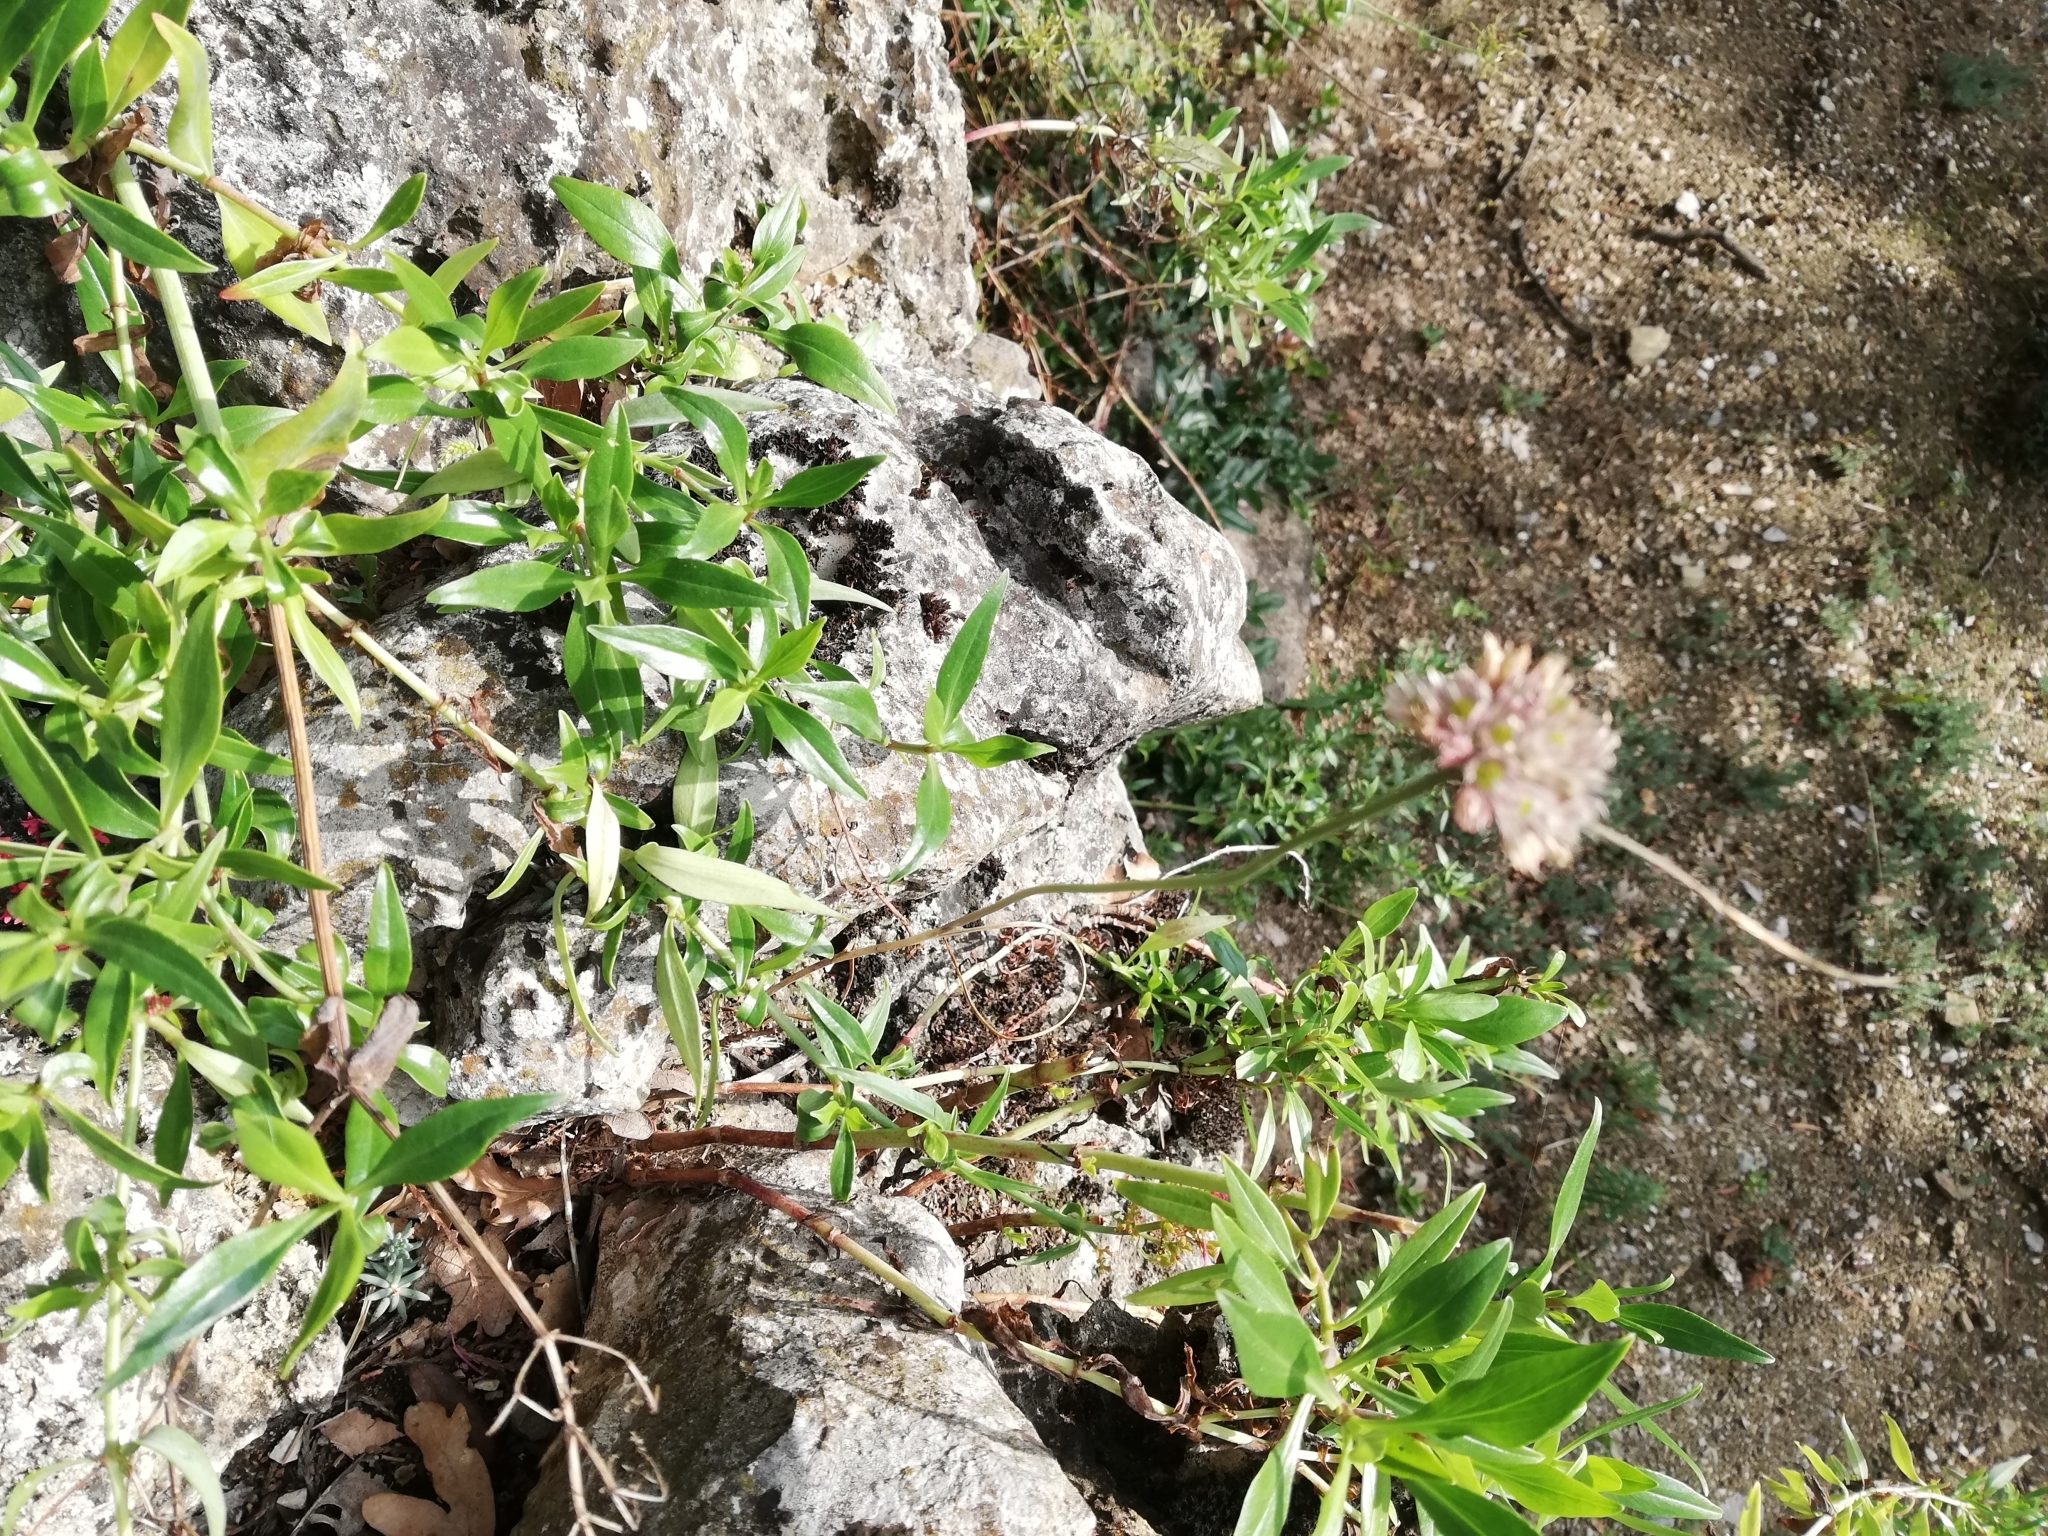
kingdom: Plantae
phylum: Tracheophyta
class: Magnoliopsida
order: Dipsacales
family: Caprifoliaceae
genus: Centranthus
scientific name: Centranthus ruber
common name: Red valerian
